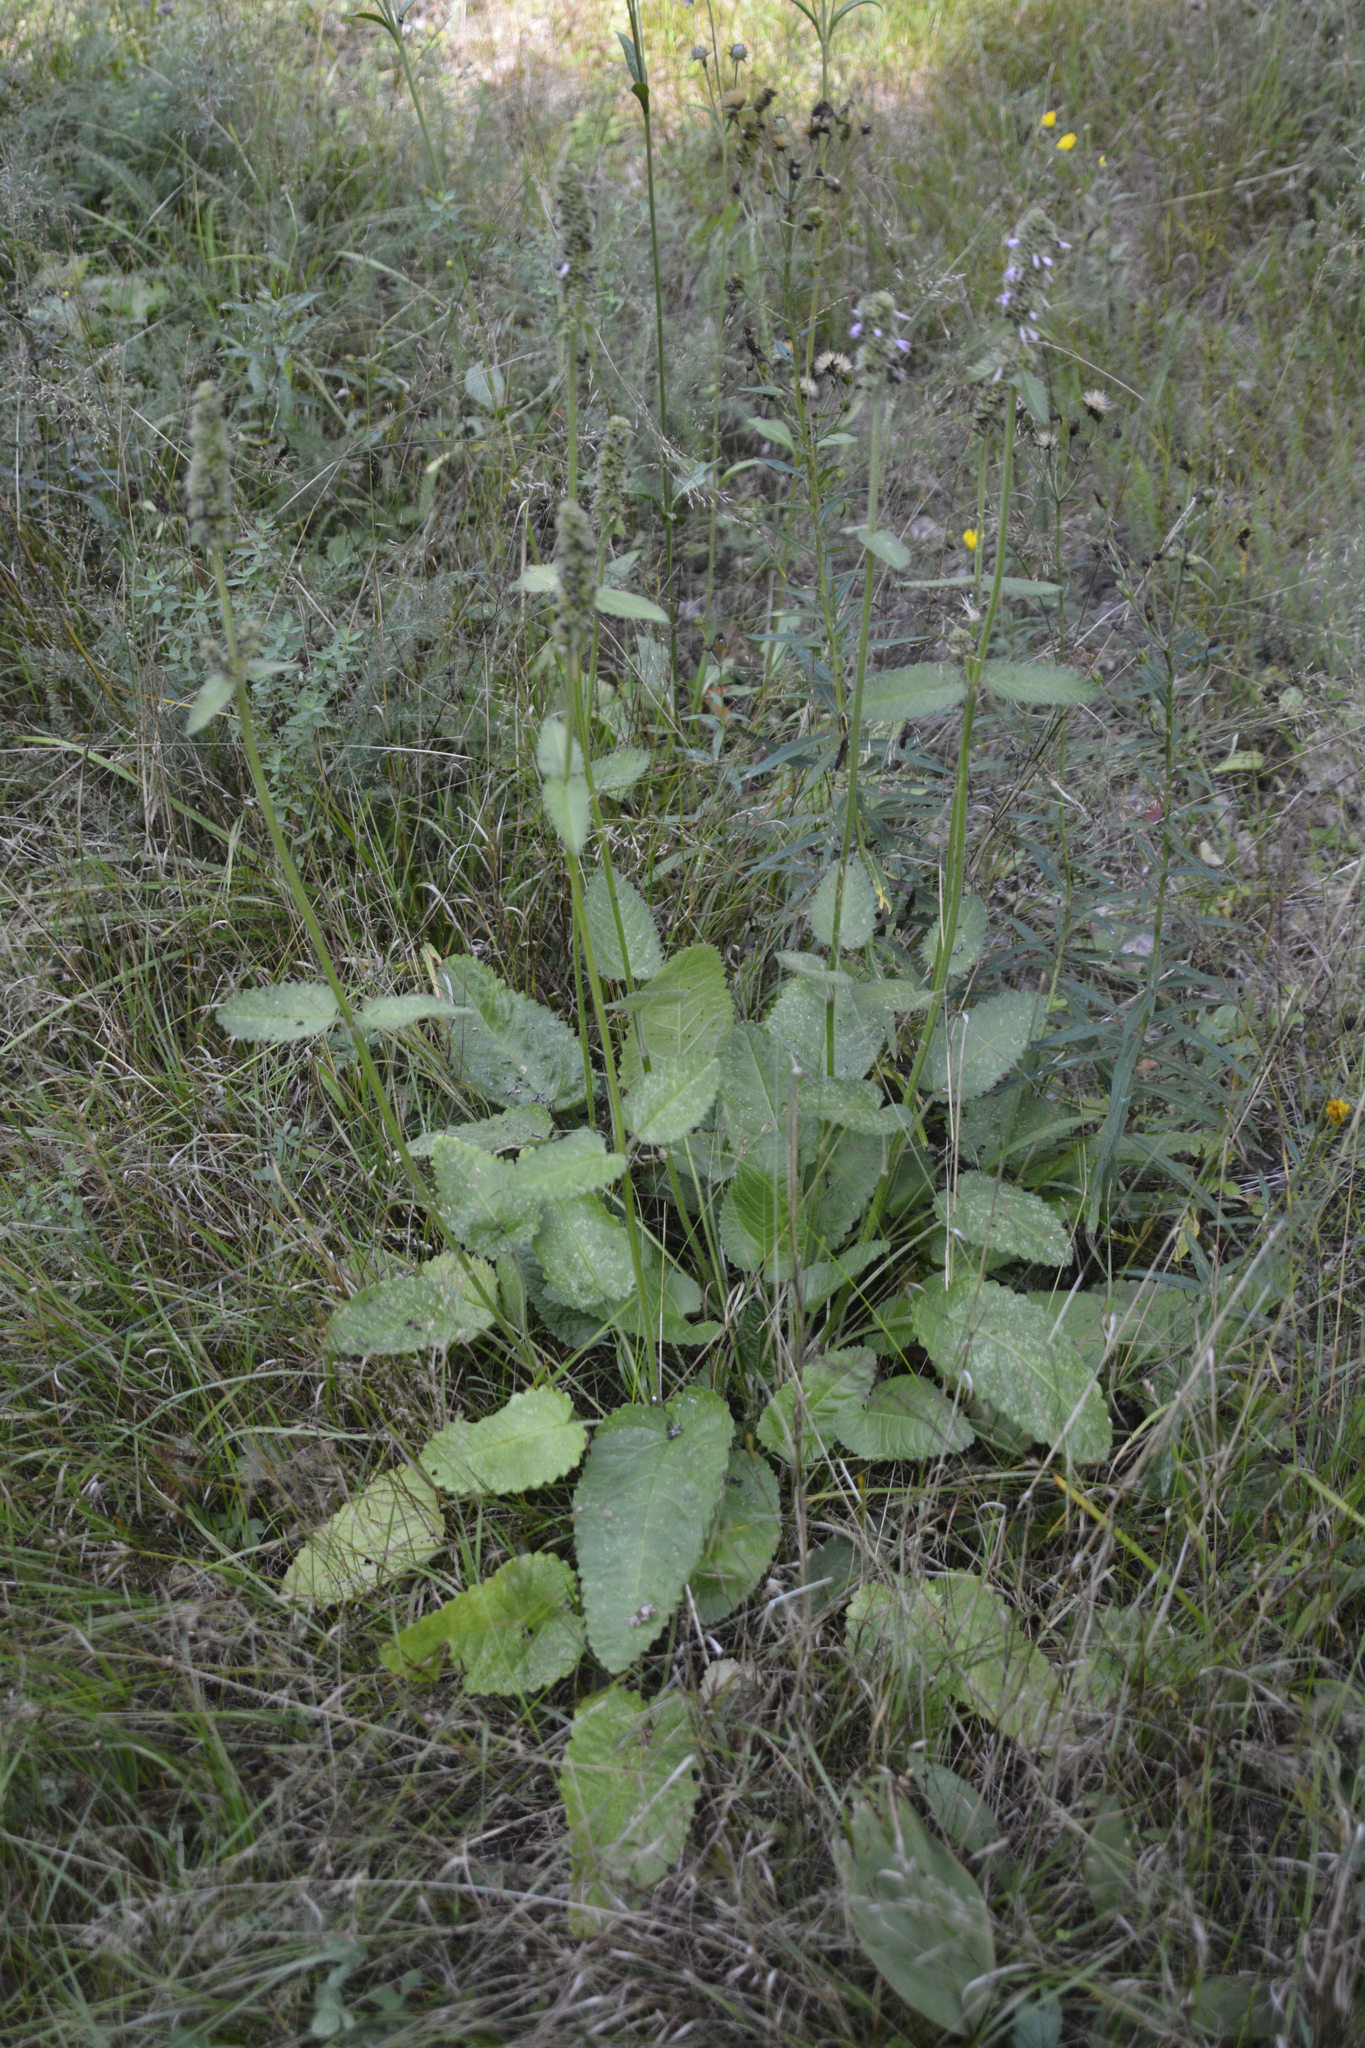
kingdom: Plantae
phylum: Tracheophyta
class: Magnoliopsida
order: Lamiales
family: Lamiaceae
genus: Betonica
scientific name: Betonica officinalis
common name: Bishop's-wort
